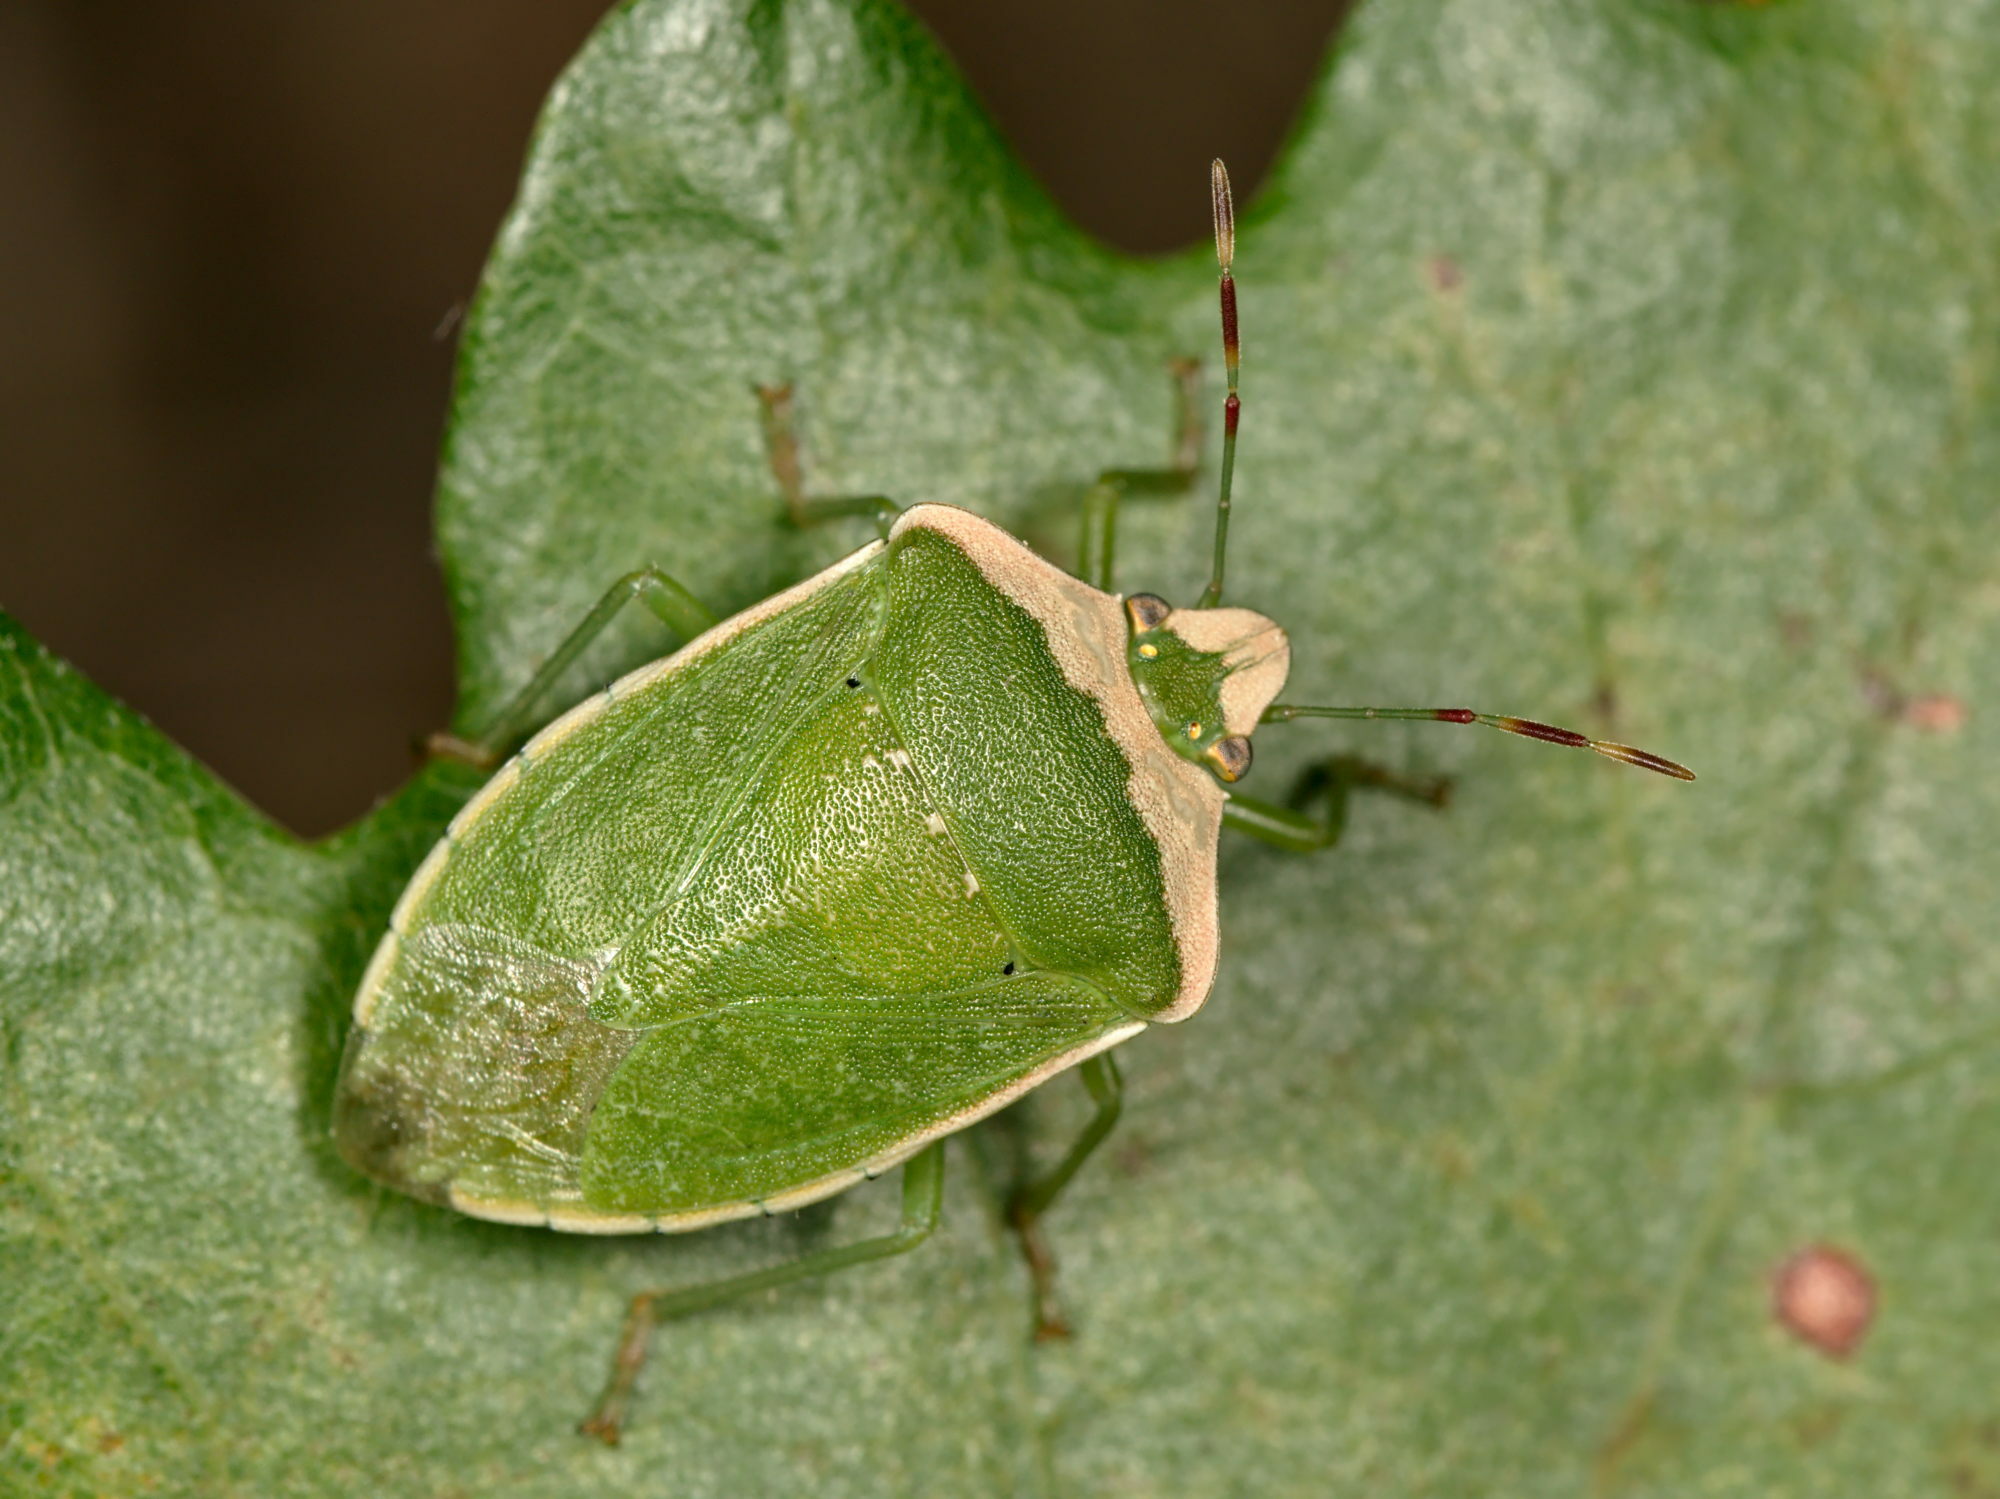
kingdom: Animalia
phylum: Arthropoda
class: Insecta
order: Hemiptera
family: Pentatomidae
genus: Nezara
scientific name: Nezara viridula
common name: Southern green stink bug
